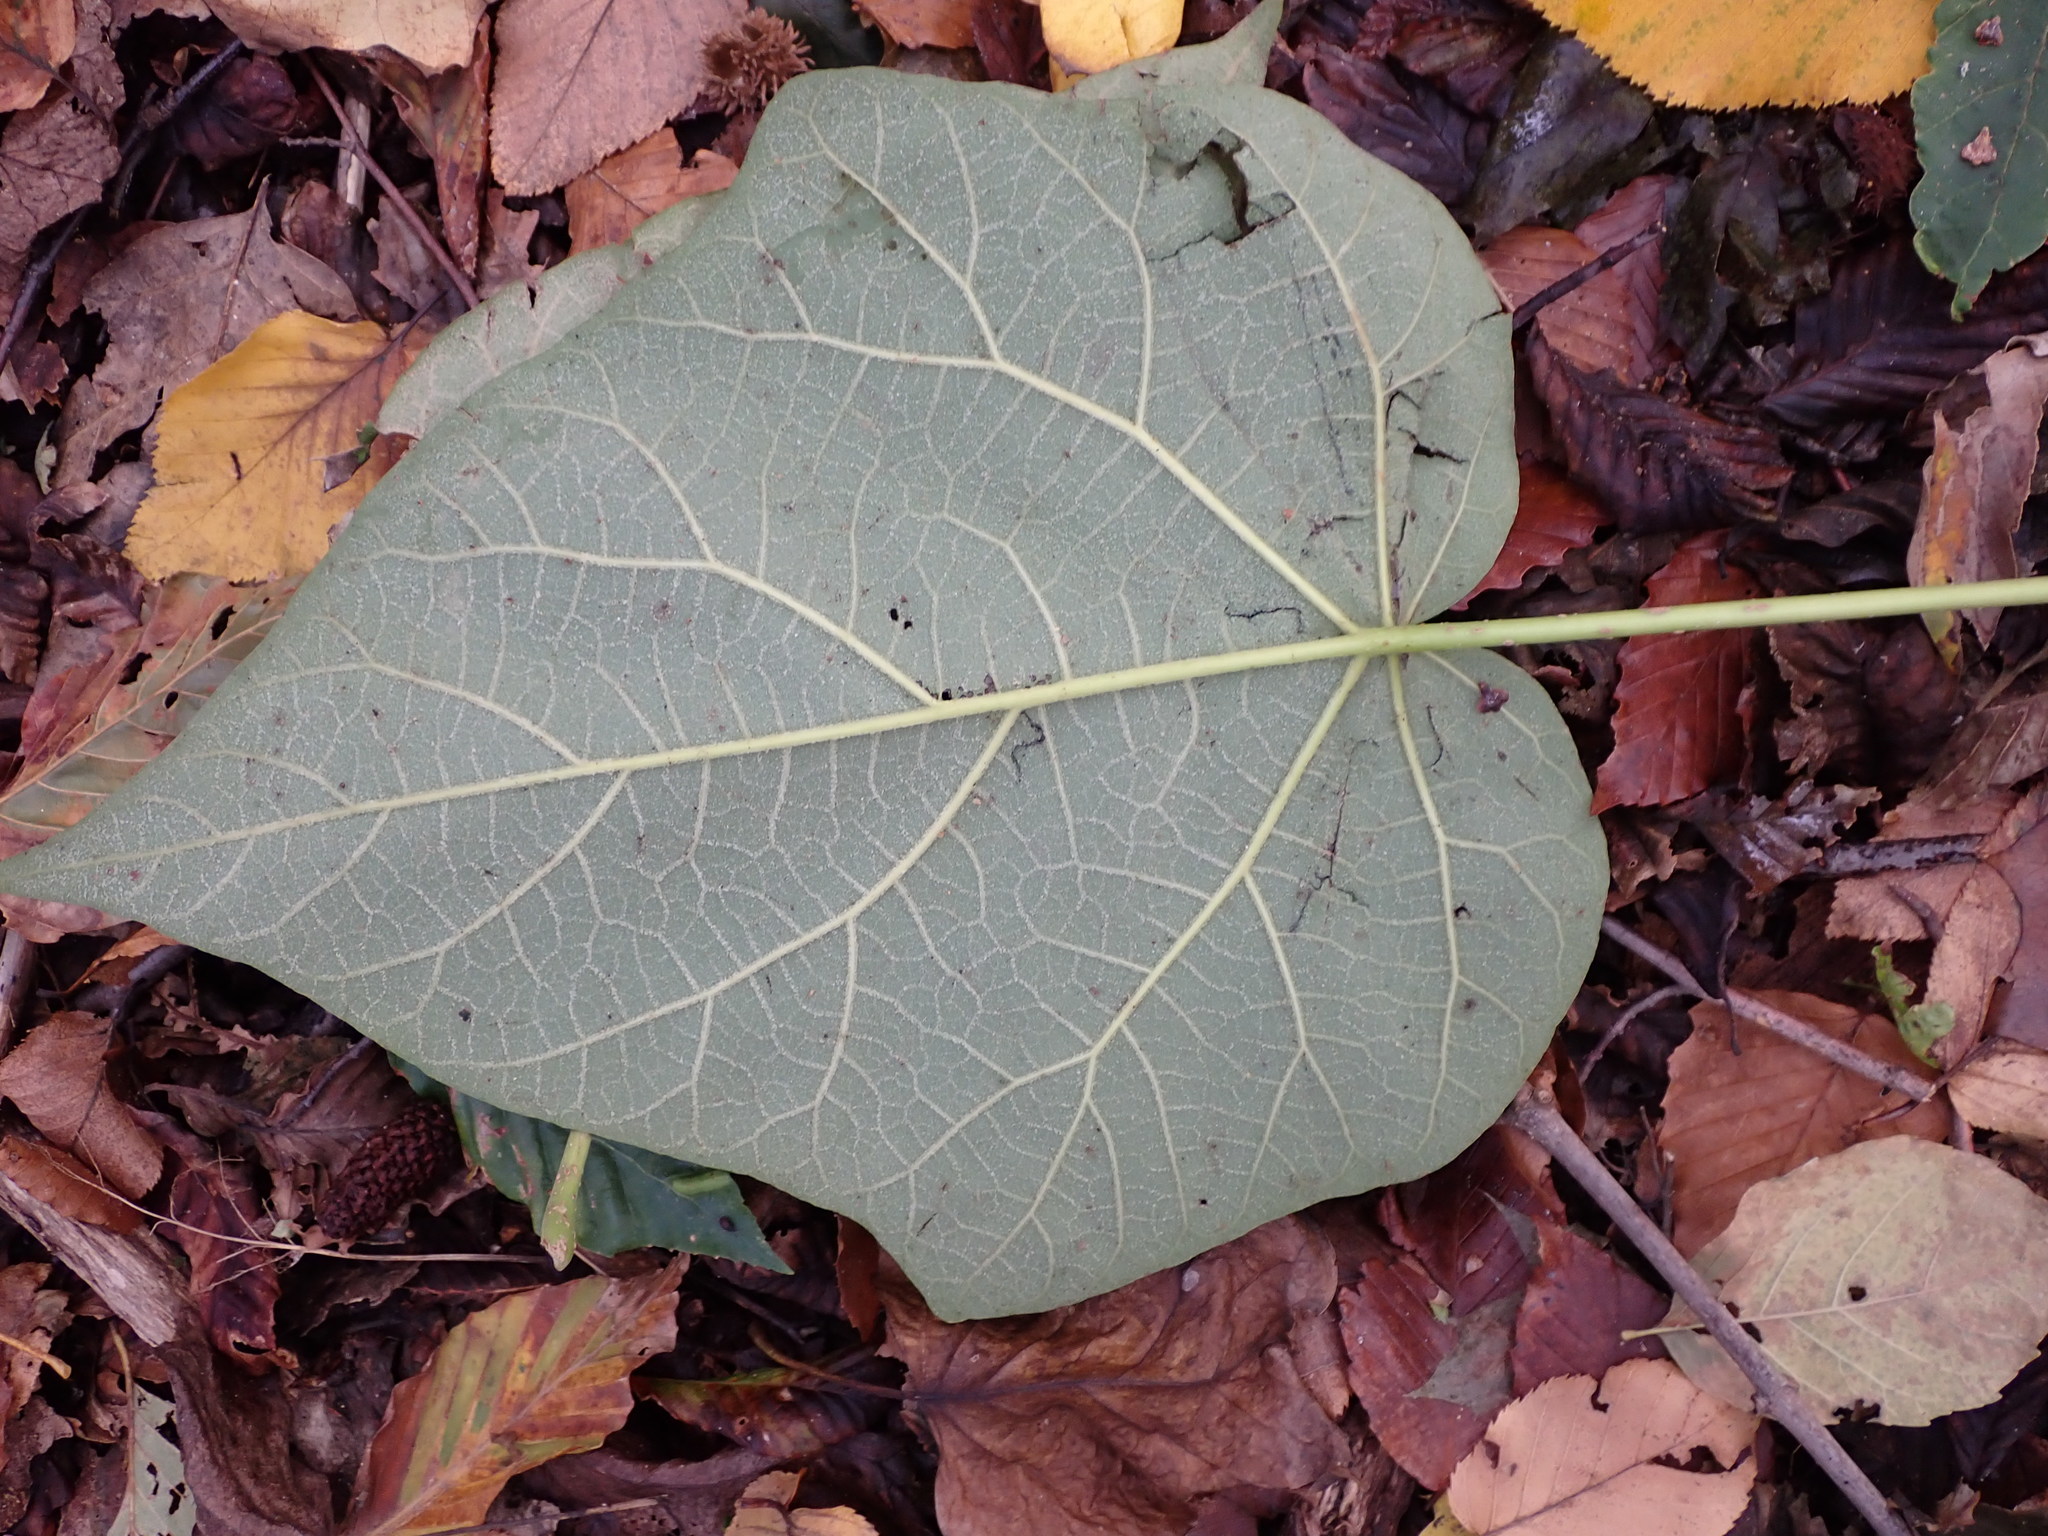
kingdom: Plantae
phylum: Tracheophyta
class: Magnoliopsida
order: Lamiales
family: Paulowniaceae
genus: Paulownia
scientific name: Paulownia tomentosa
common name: Foxglove-tree
